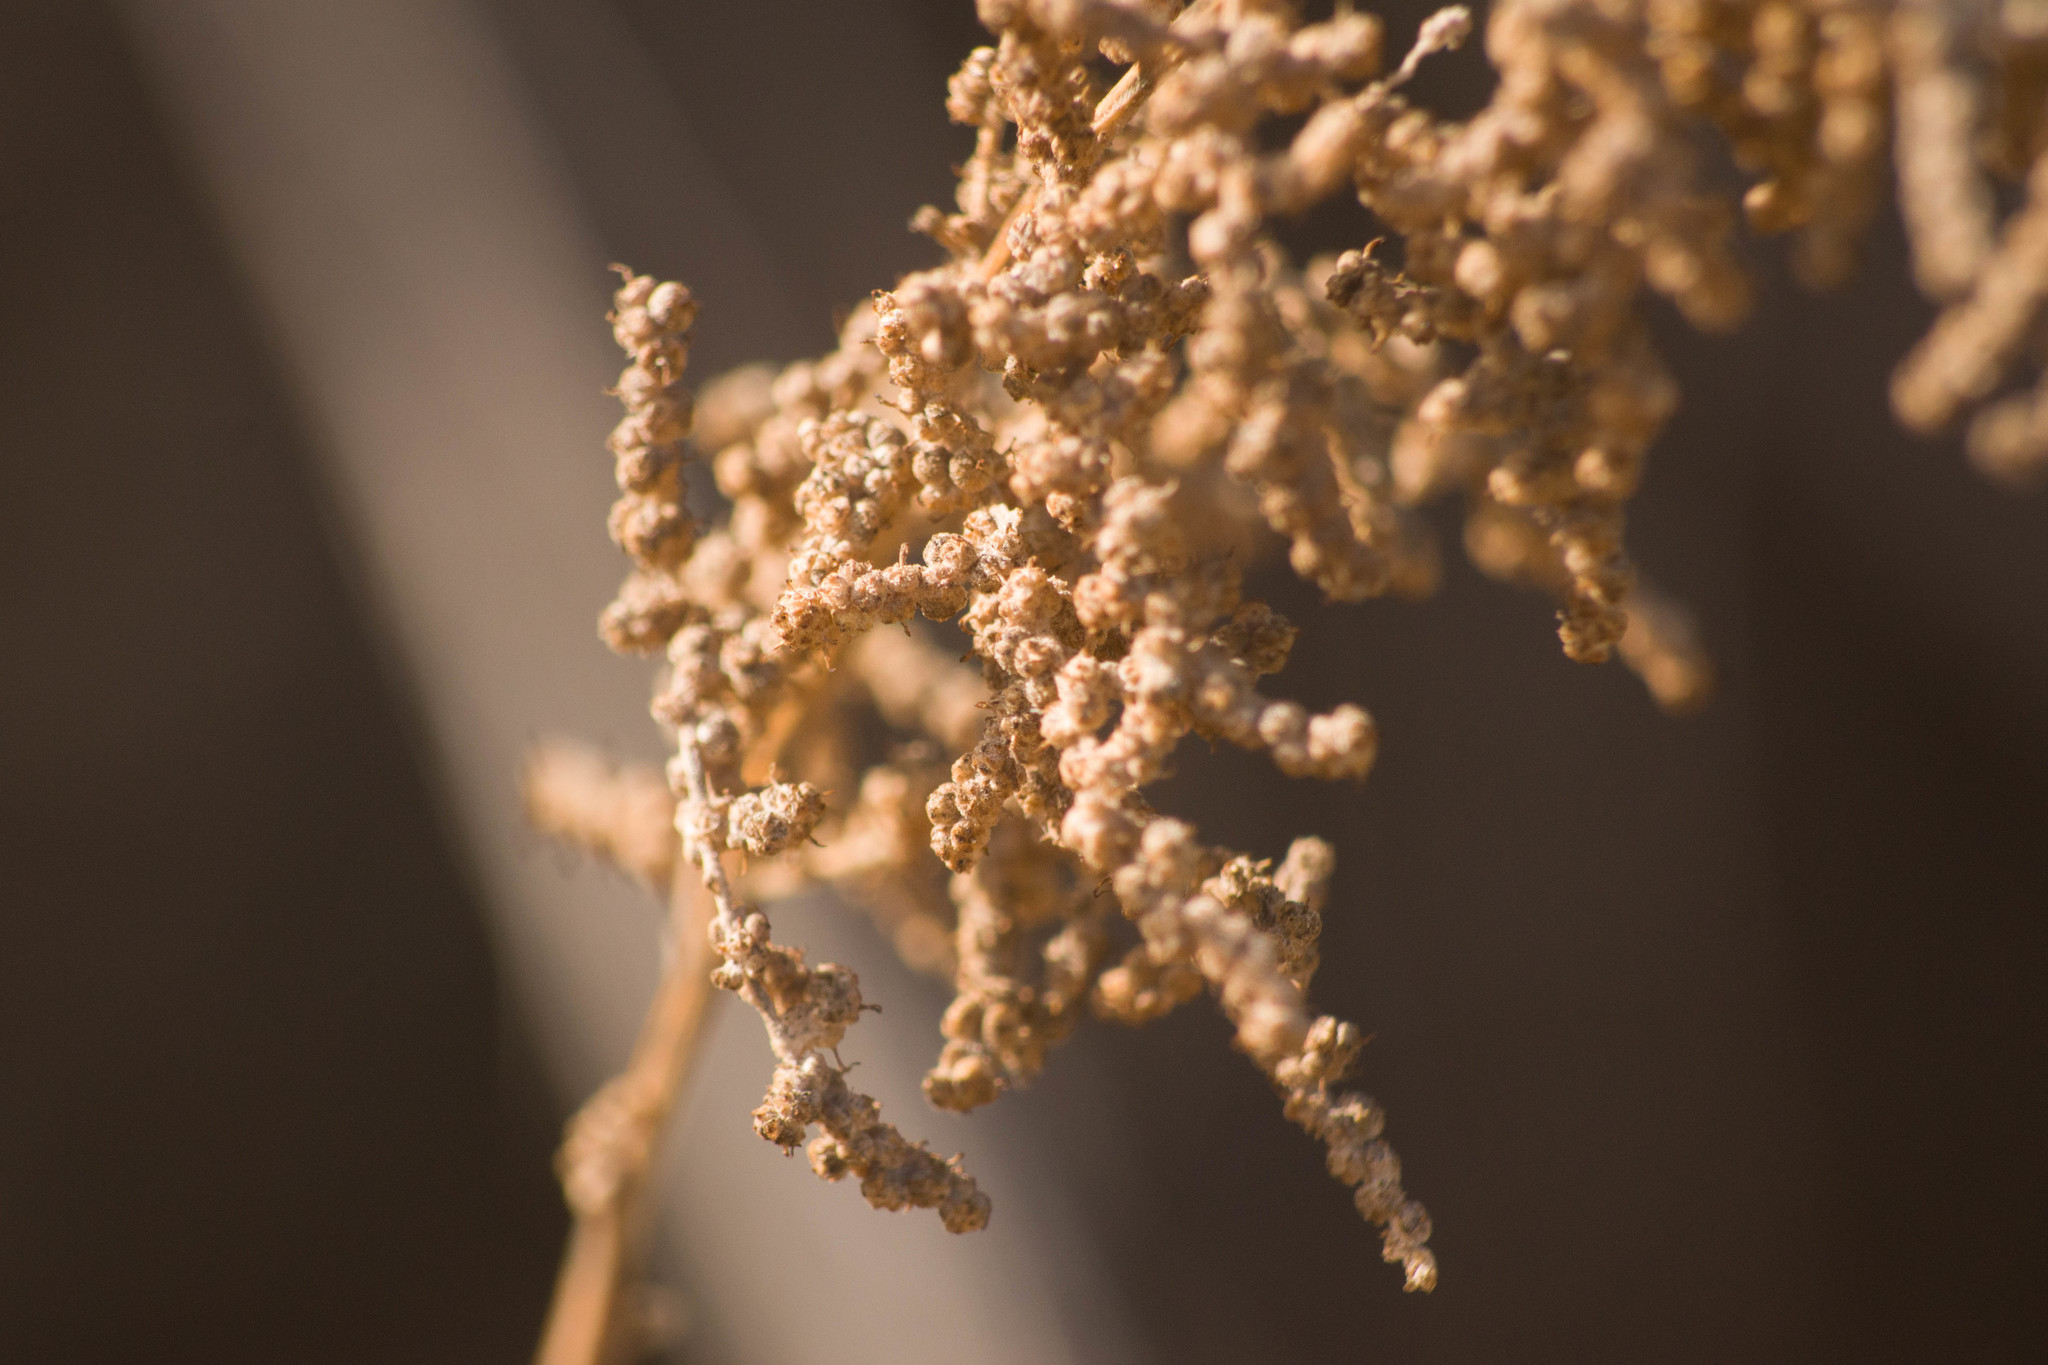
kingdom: Plantae
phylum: Tracheophyta
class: Magnoliopsida
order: Caryophyllales
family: Amaranthaceae
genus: Chenopodium
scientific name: Chenopodium oahuense
